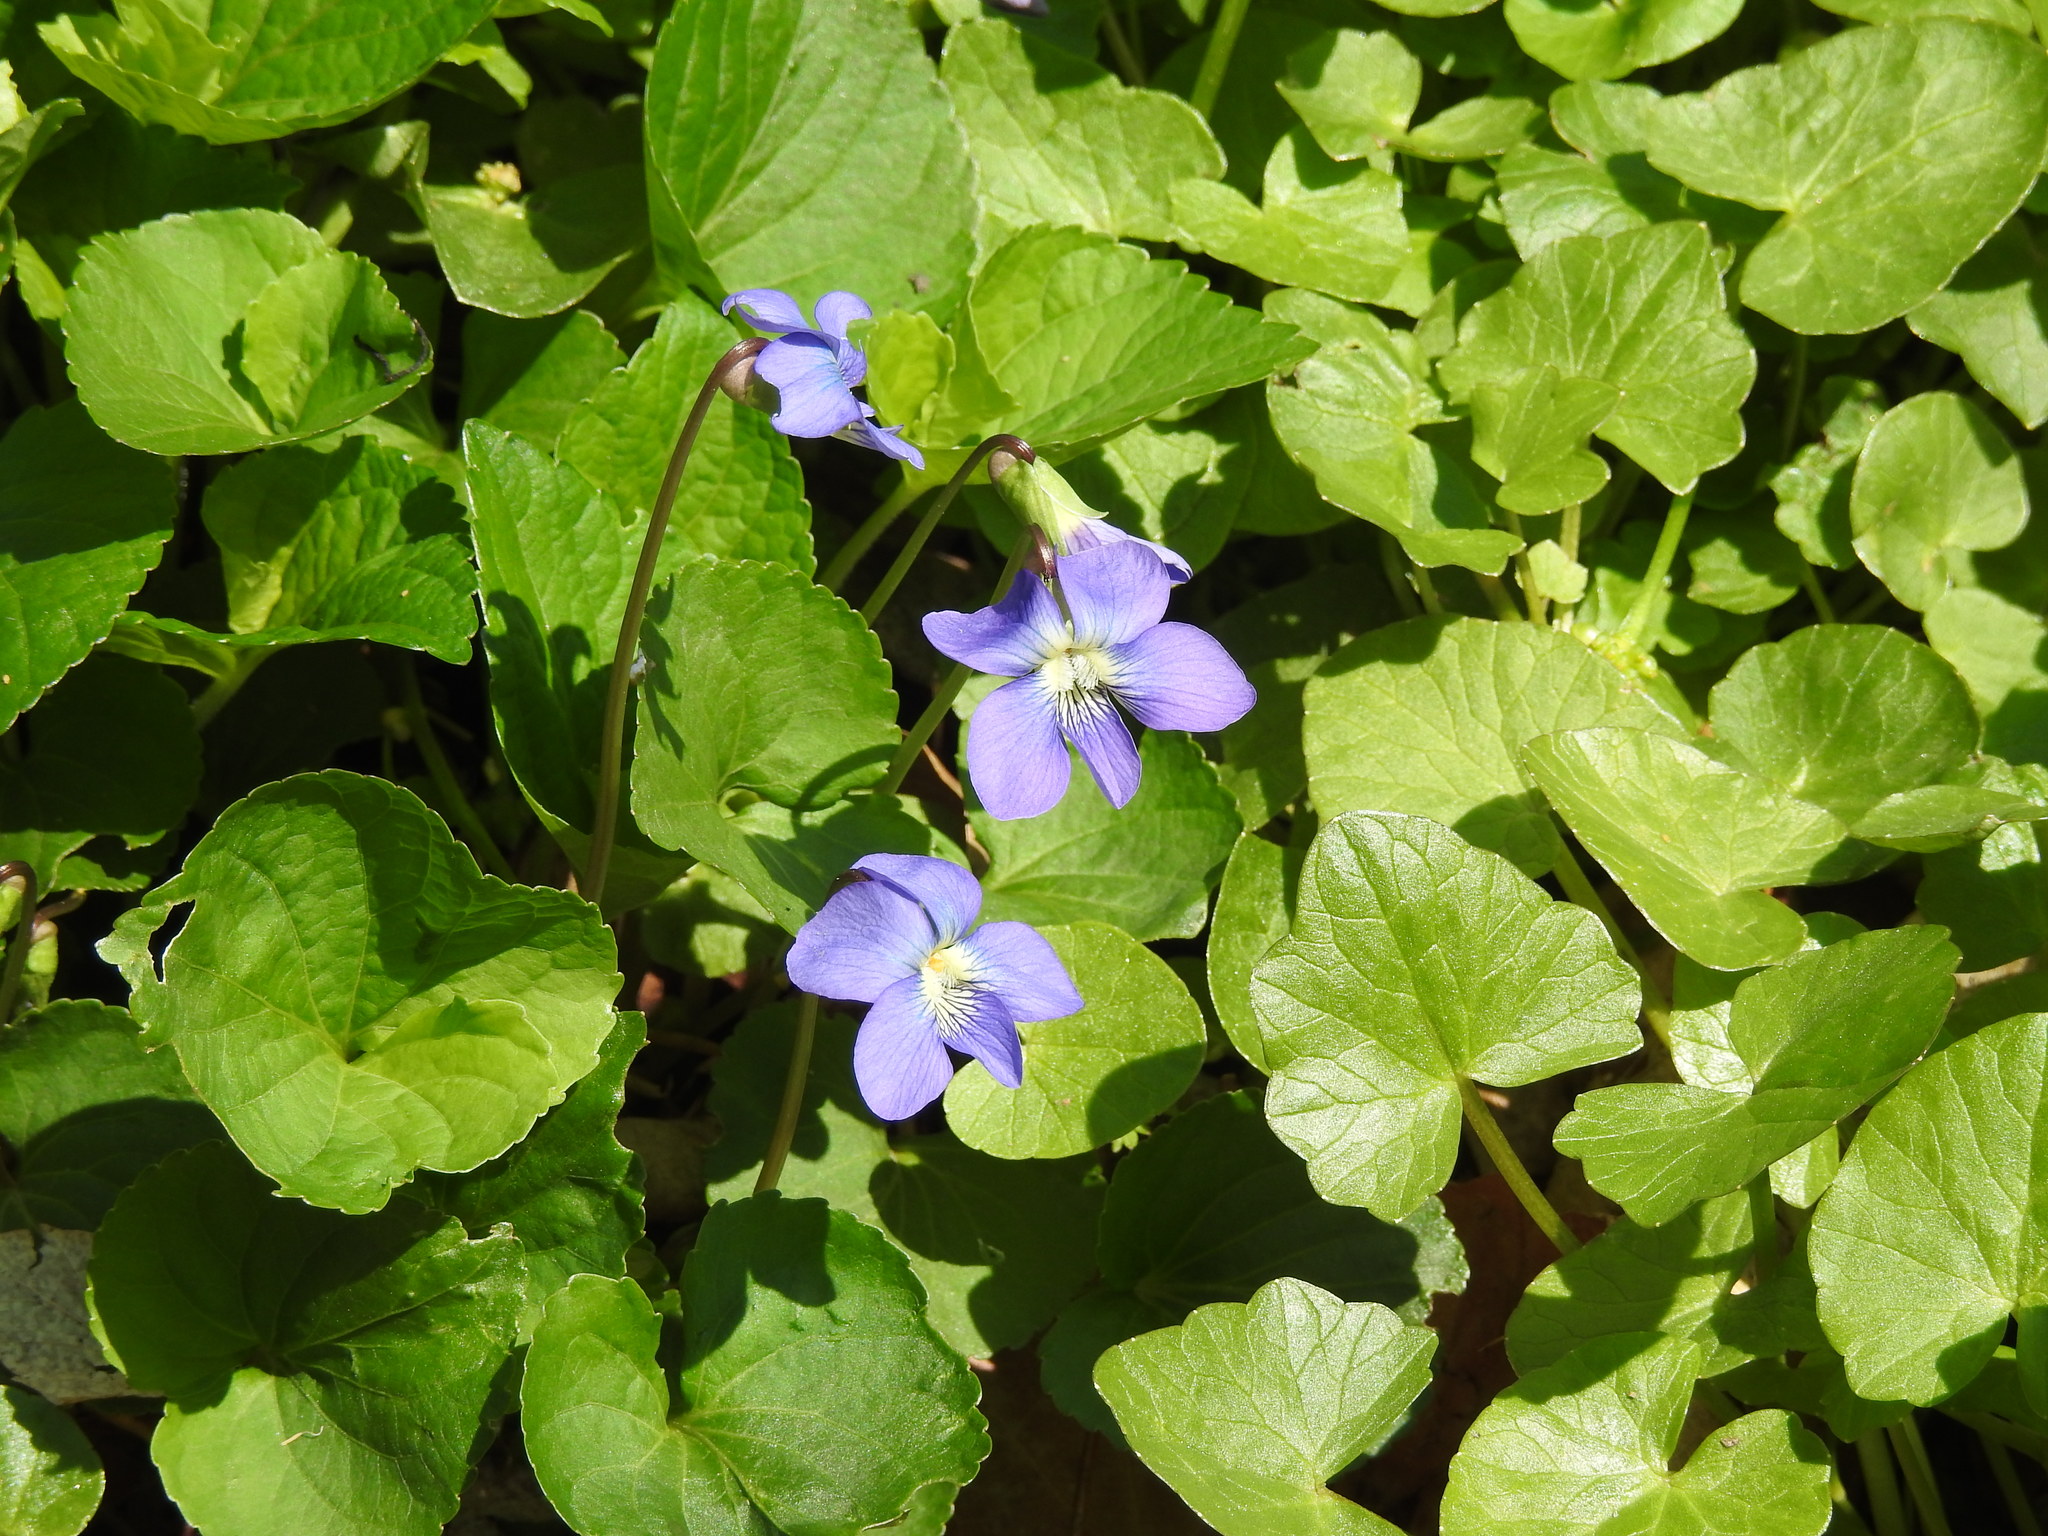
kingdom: Plantae
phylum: Tracheophyta
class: Magnoliopsida
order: Malpighiales
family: Violaceae
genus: Viola
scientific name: Viola sororia
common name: Dooryard violet
